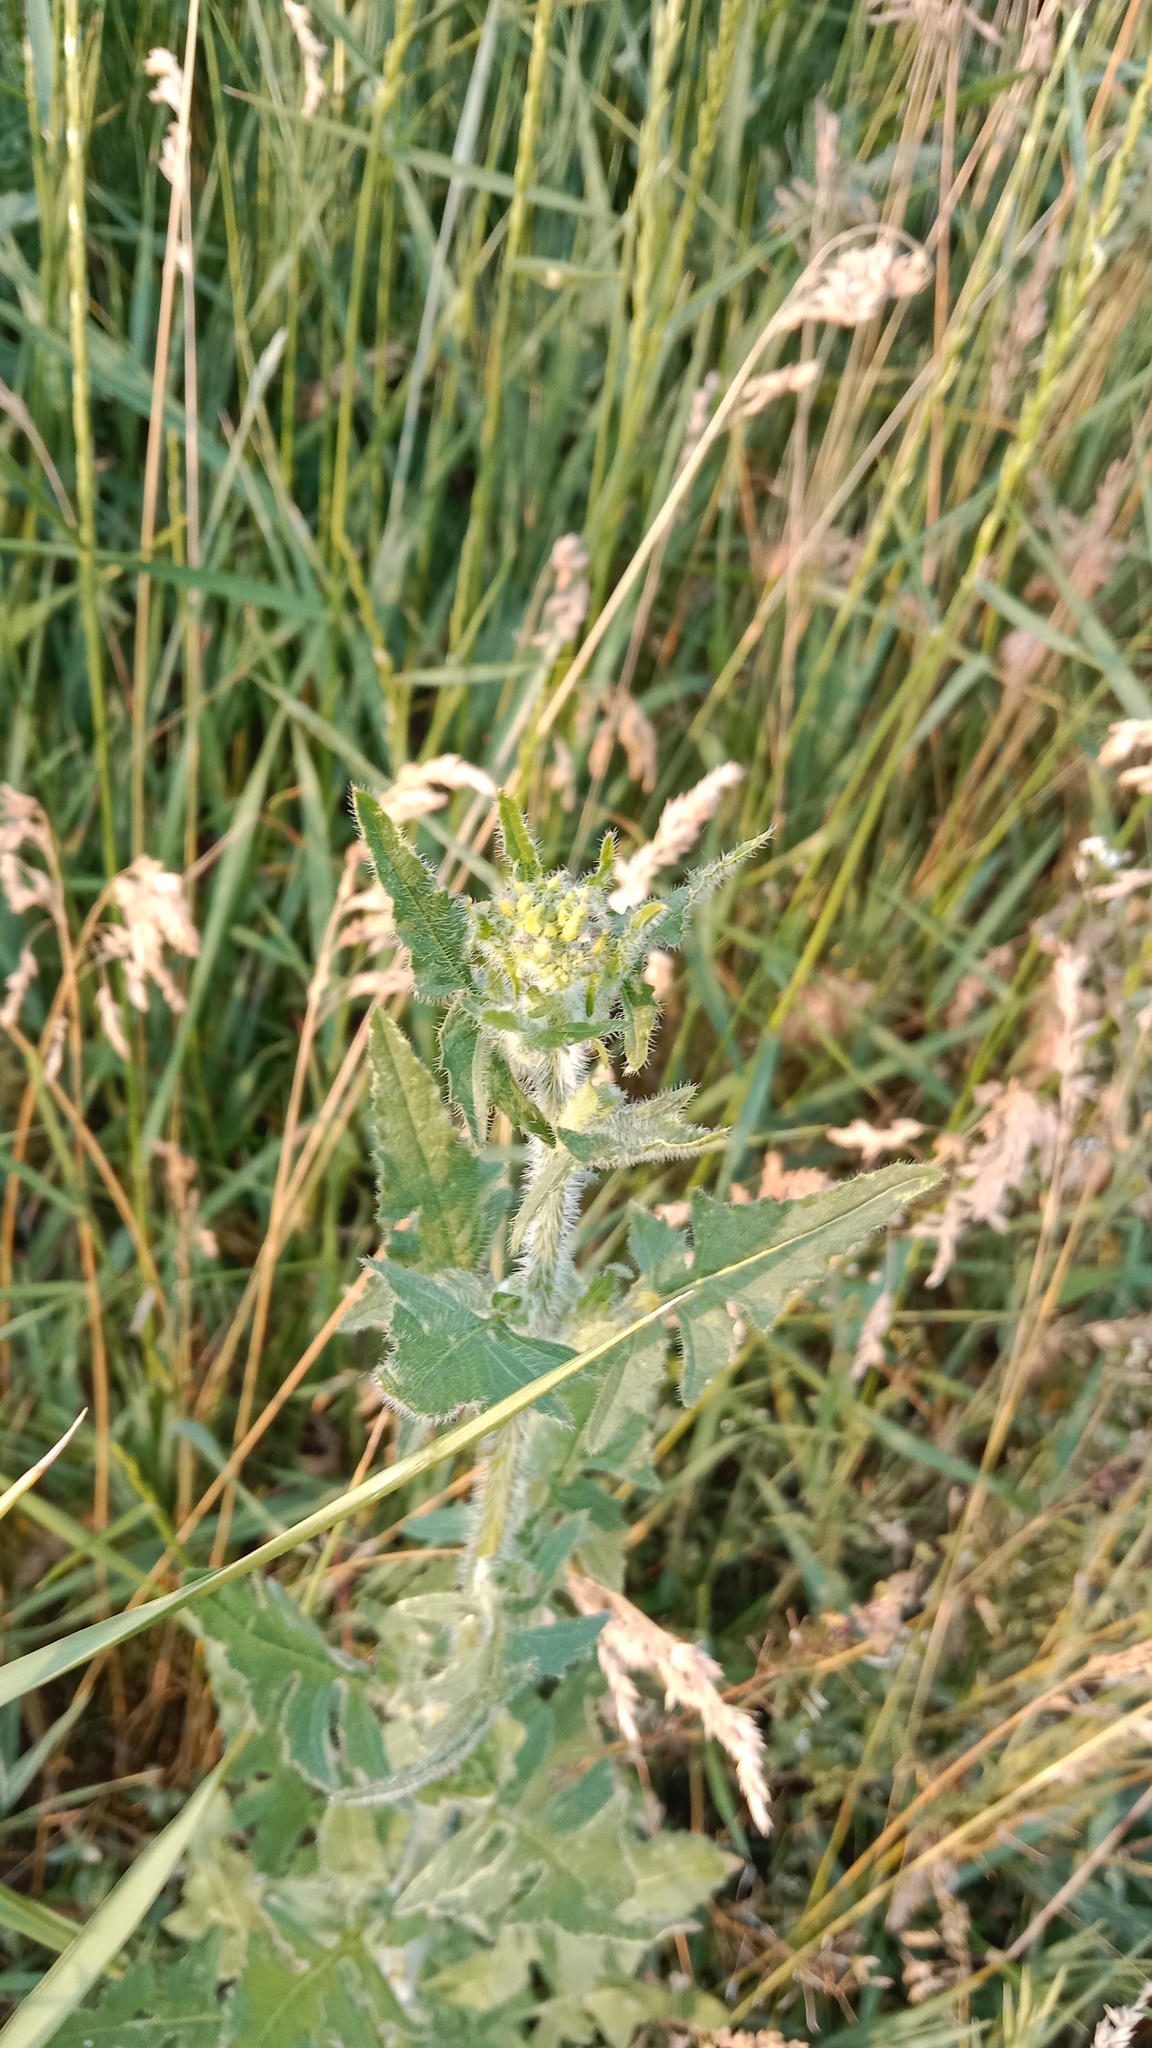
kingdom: Plantae
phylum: Tracheophyta
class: Magnoliopsida
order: Brassicales
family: Brassicaceae
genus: Sisymbrium
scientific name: Sisymbrium loeselii
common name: False london-rocket
